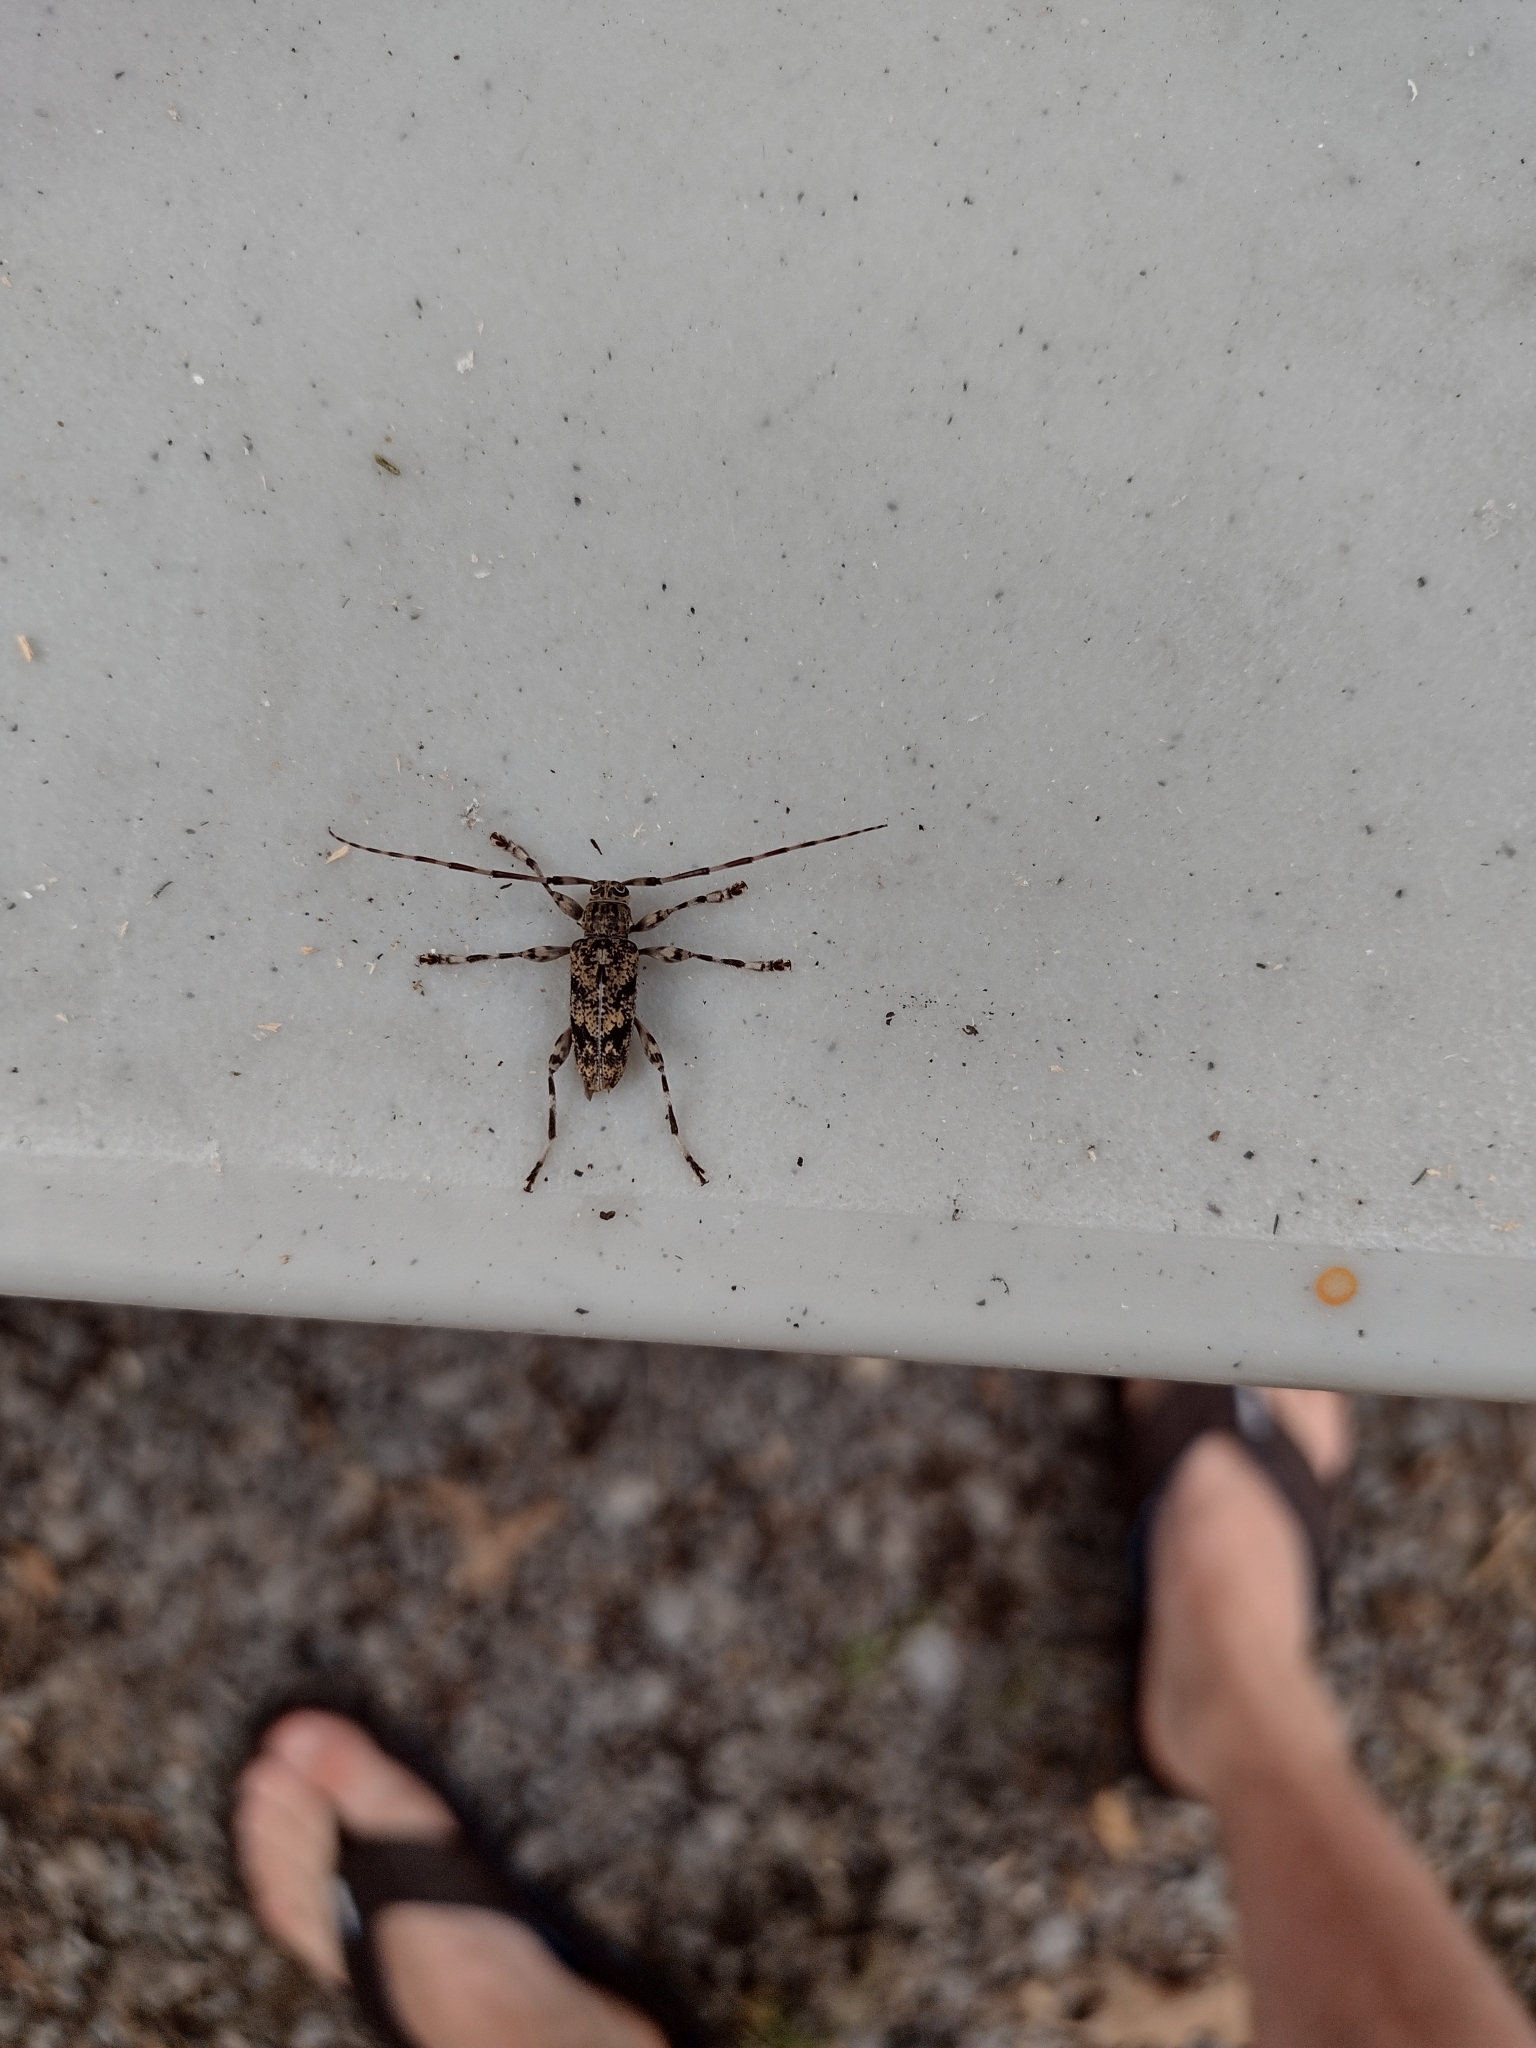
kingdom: Animalia
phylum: Arthropoda
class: Insecta
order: Coleoptera
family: Cerambycidae
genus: Graphisurus
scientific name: Graphisurus fasciatus
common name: Banded graphisurus
